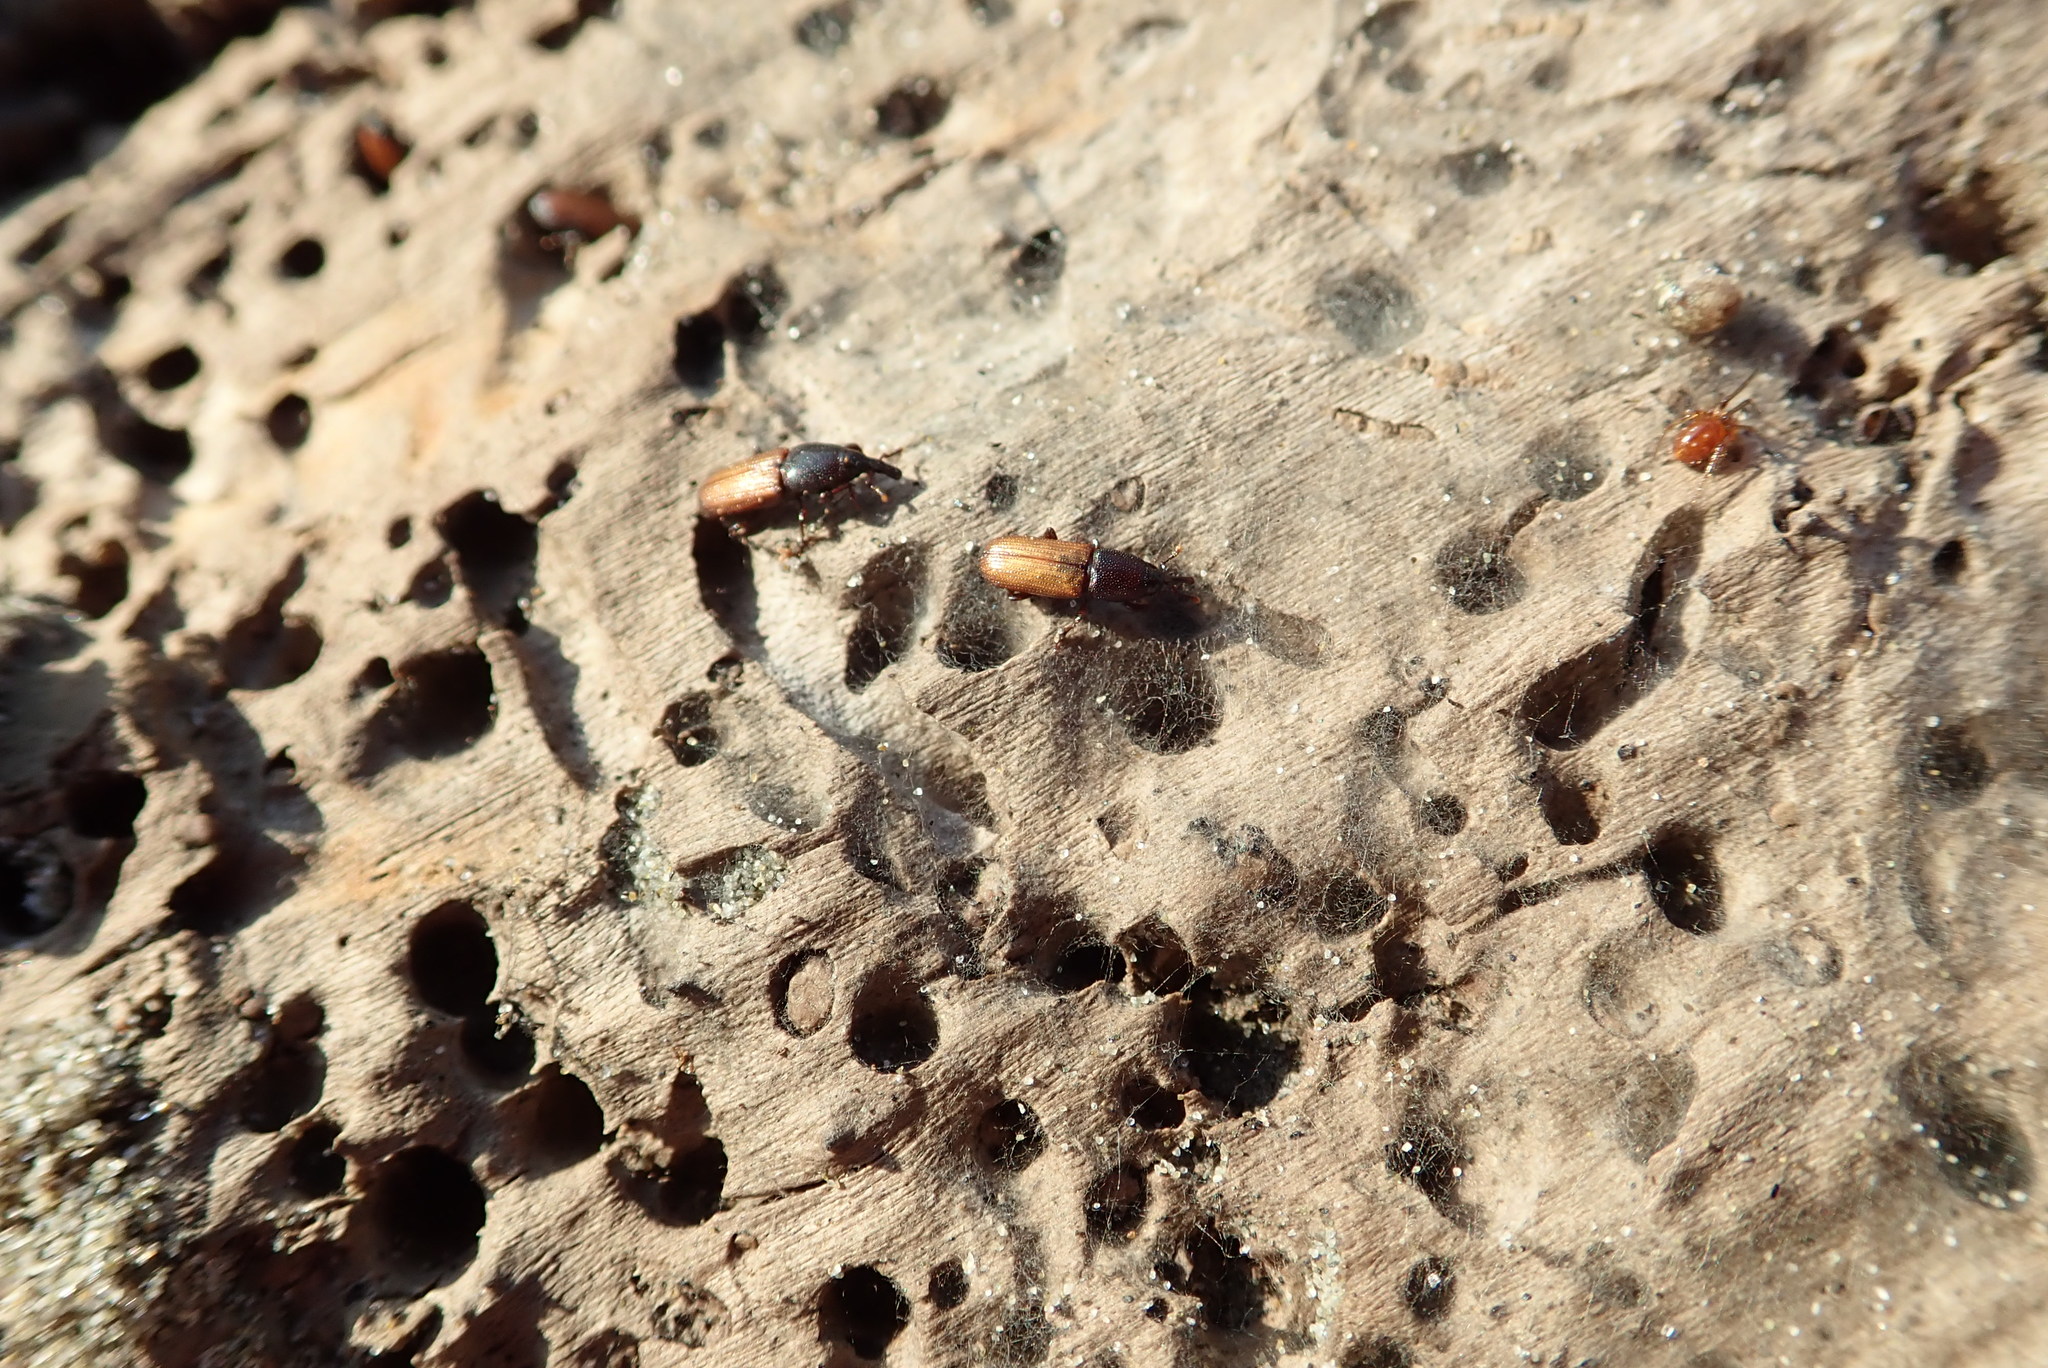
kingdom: Animalia
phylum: Arthropoda
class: Insecta
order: Coleoptera
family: Curculionidae
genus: Mesites
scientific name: Mesites pallidipennis
